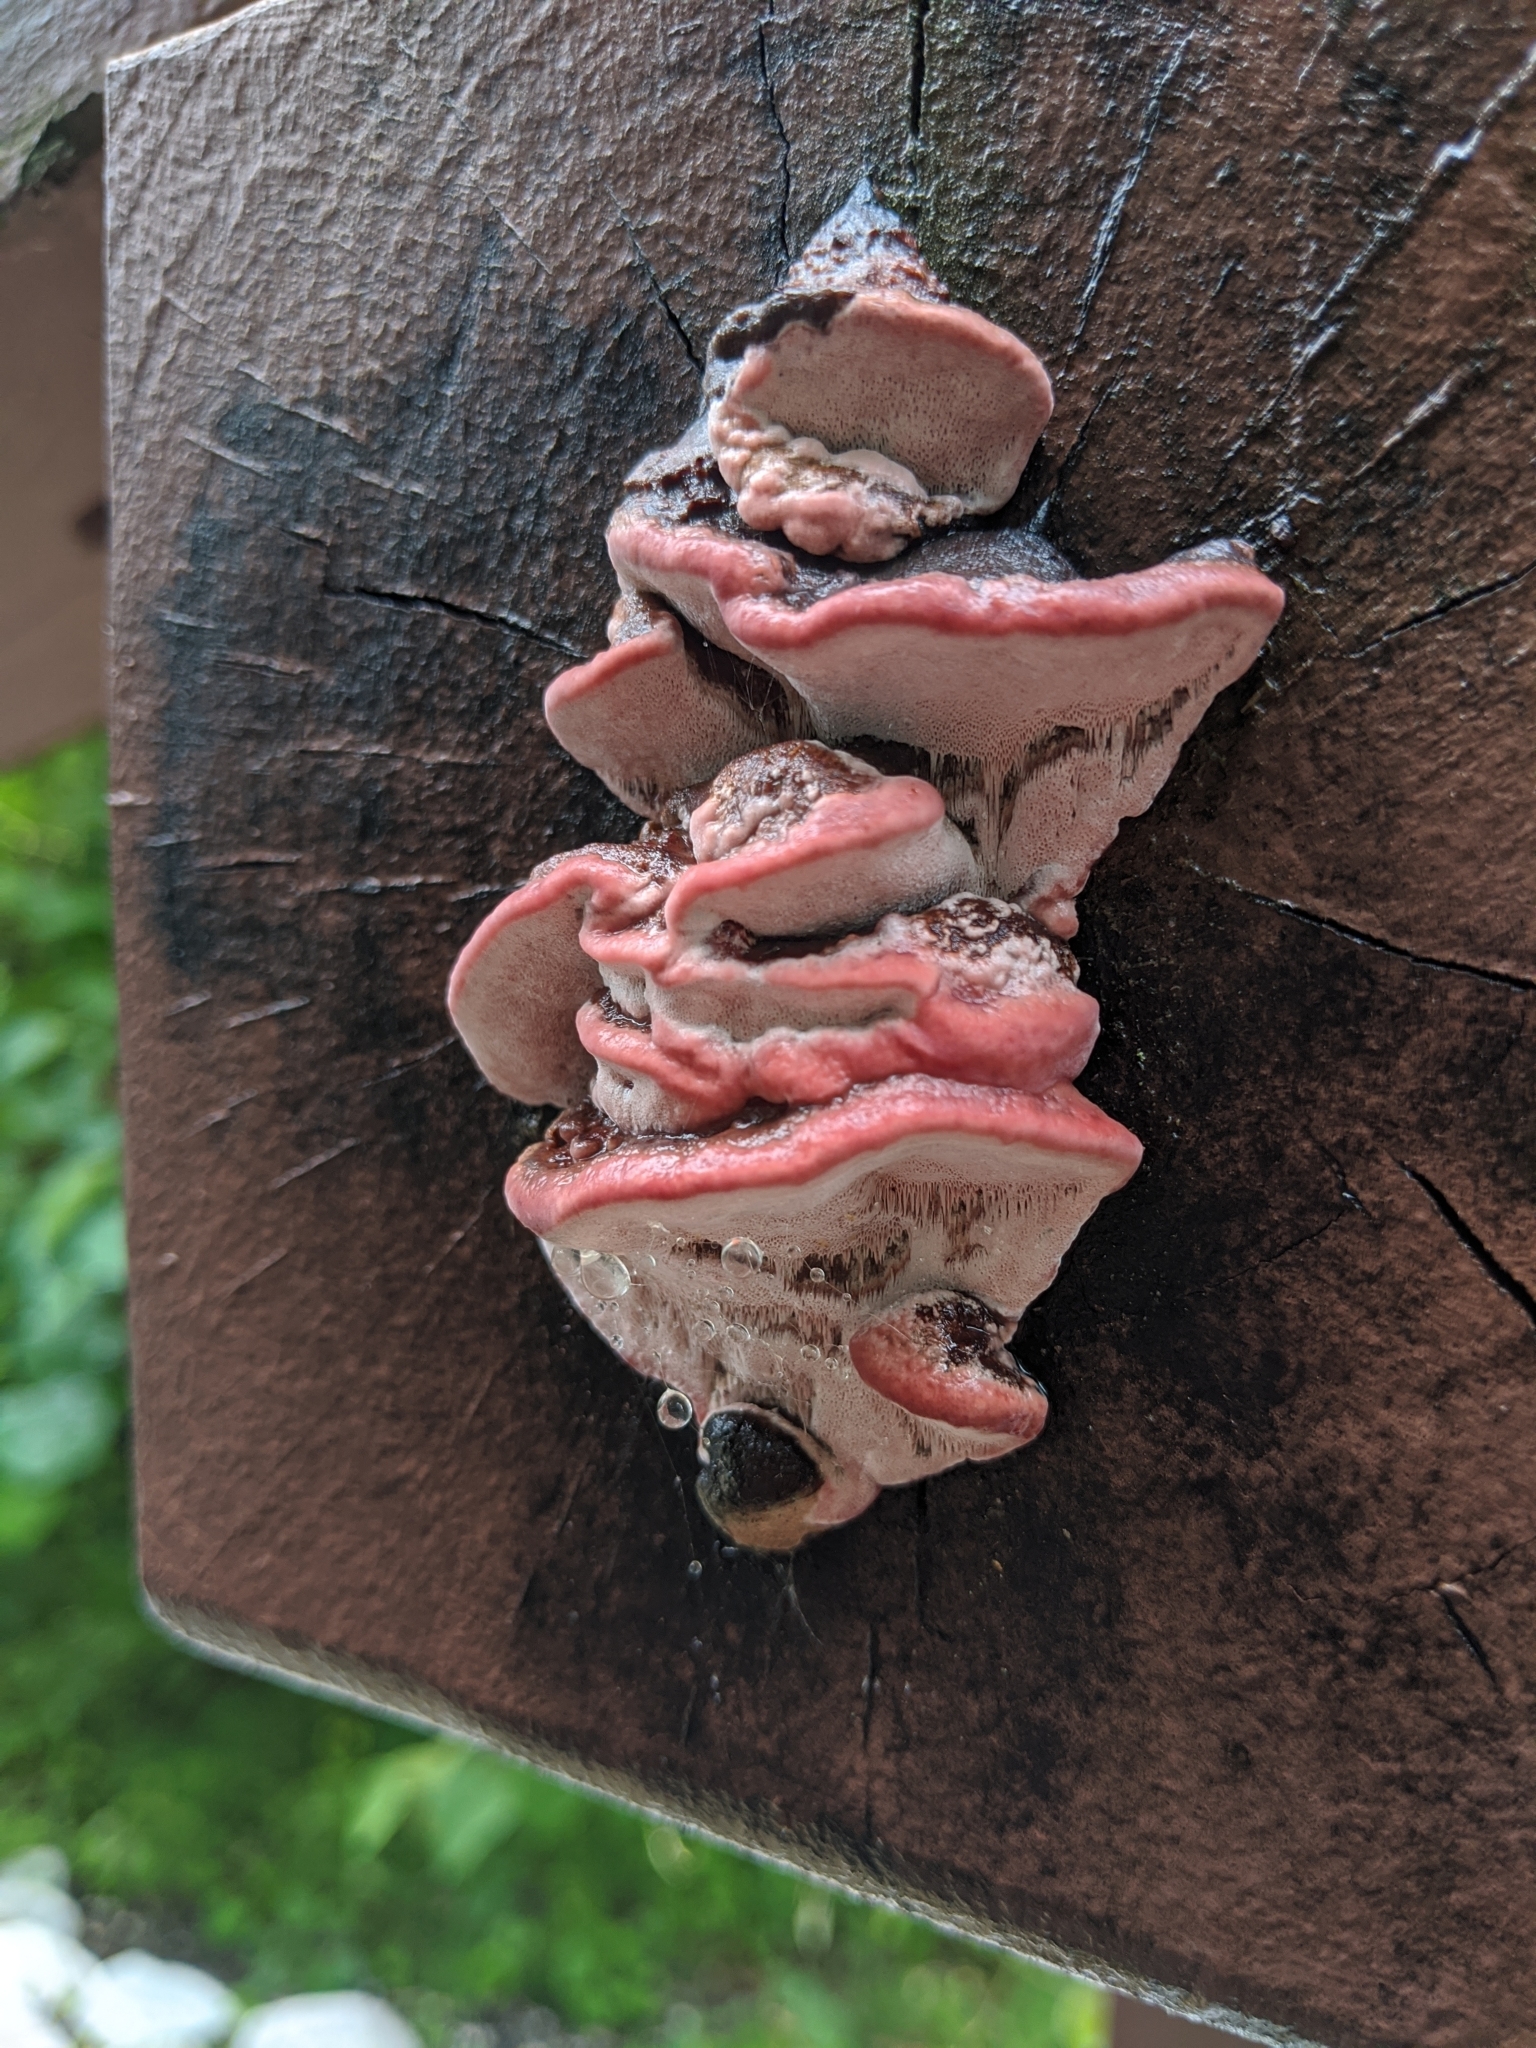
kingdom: Fungi
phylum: Basidiomycota
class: Agaricomycetes
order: Polyporales
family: Fomitopsidaceae
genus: Rhodofomes
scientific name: Rhodofomes cajanderi
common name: Rosy conk
